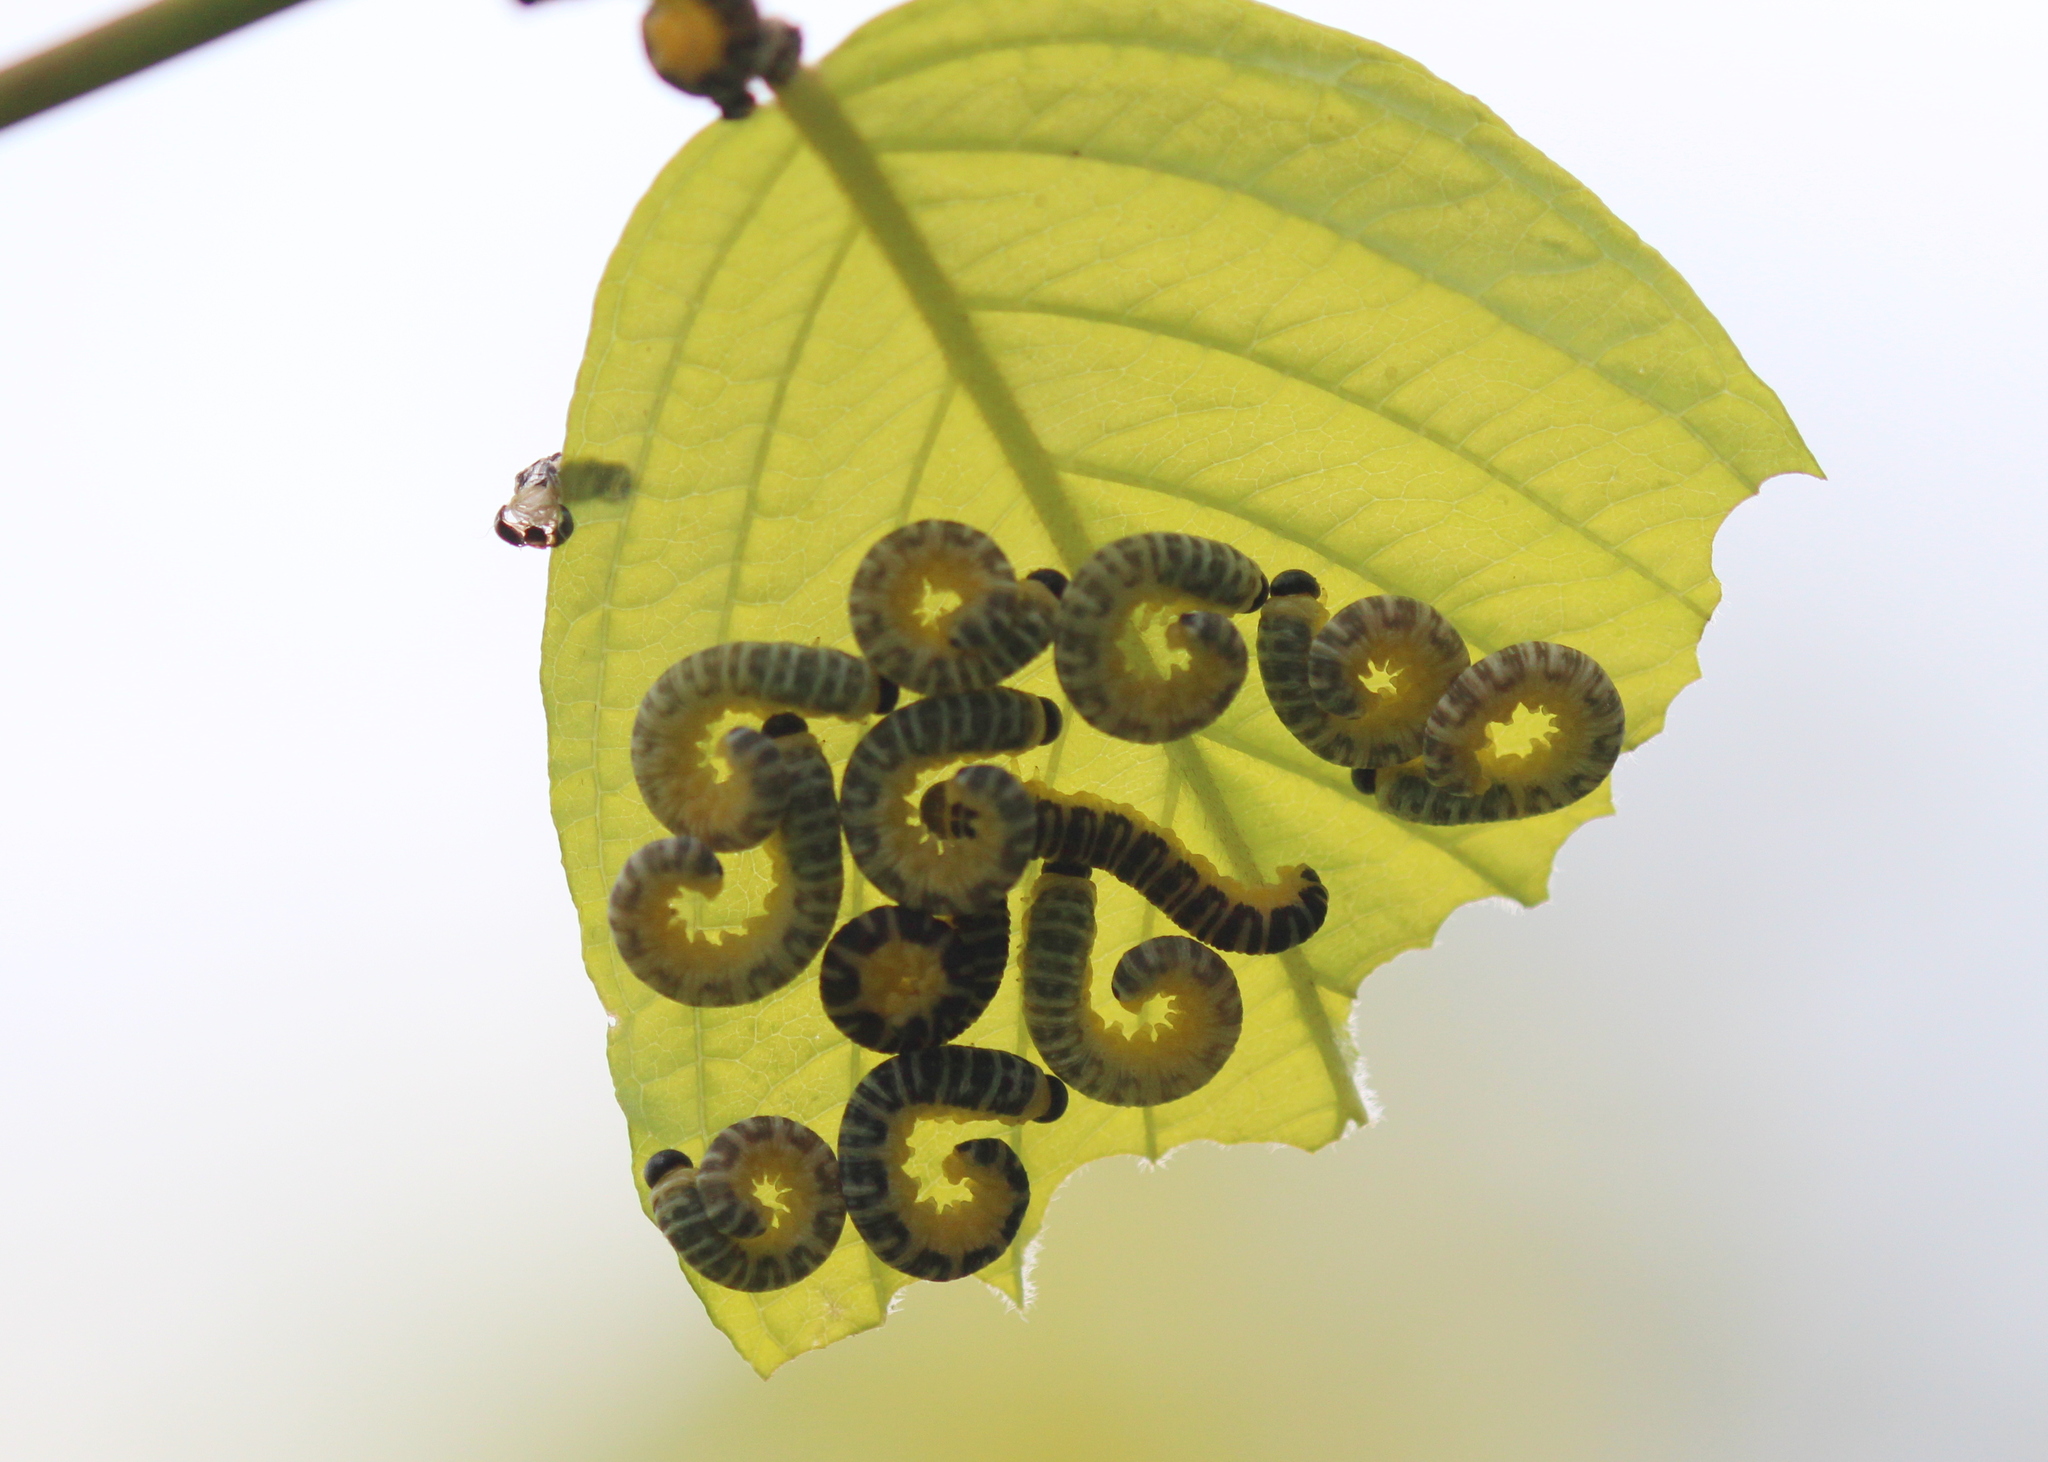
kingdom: Animalia
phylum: Arthropoda
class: Insecta
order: Hymenoptera
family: Tenthredinidae
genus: Macremphytus
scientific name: Macremphytus
